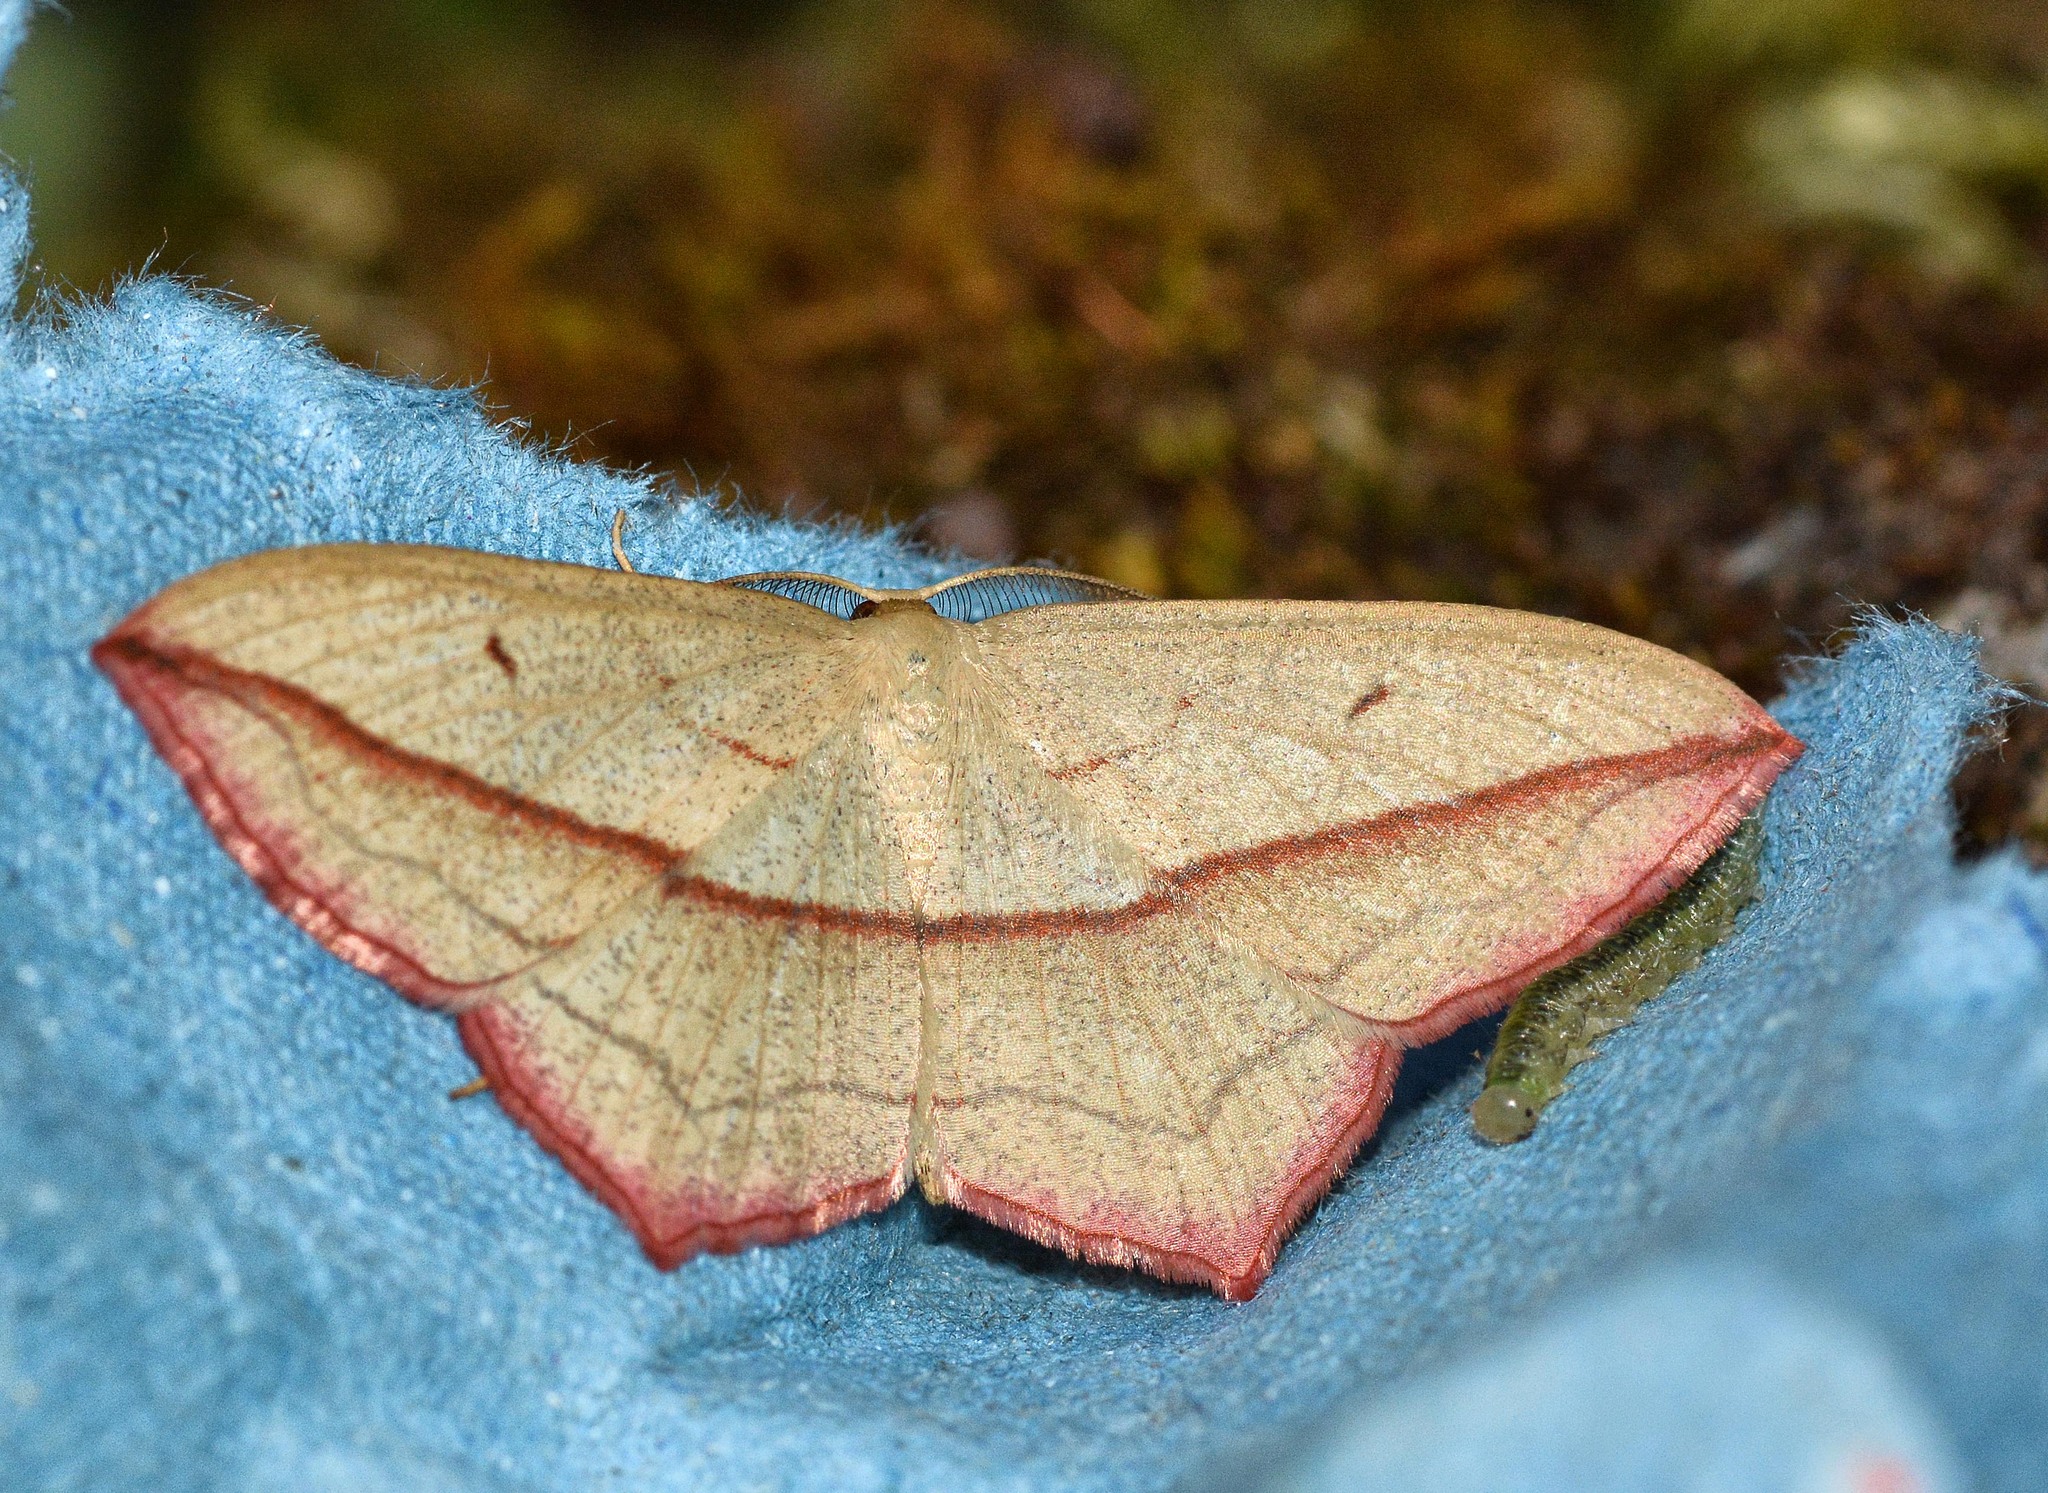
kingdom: Animalia
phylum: Arthropoda
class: Insecta
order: Lepidoptera
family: Geometridae
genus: Timandra
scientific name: Timandra comae
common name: Blood-vein
